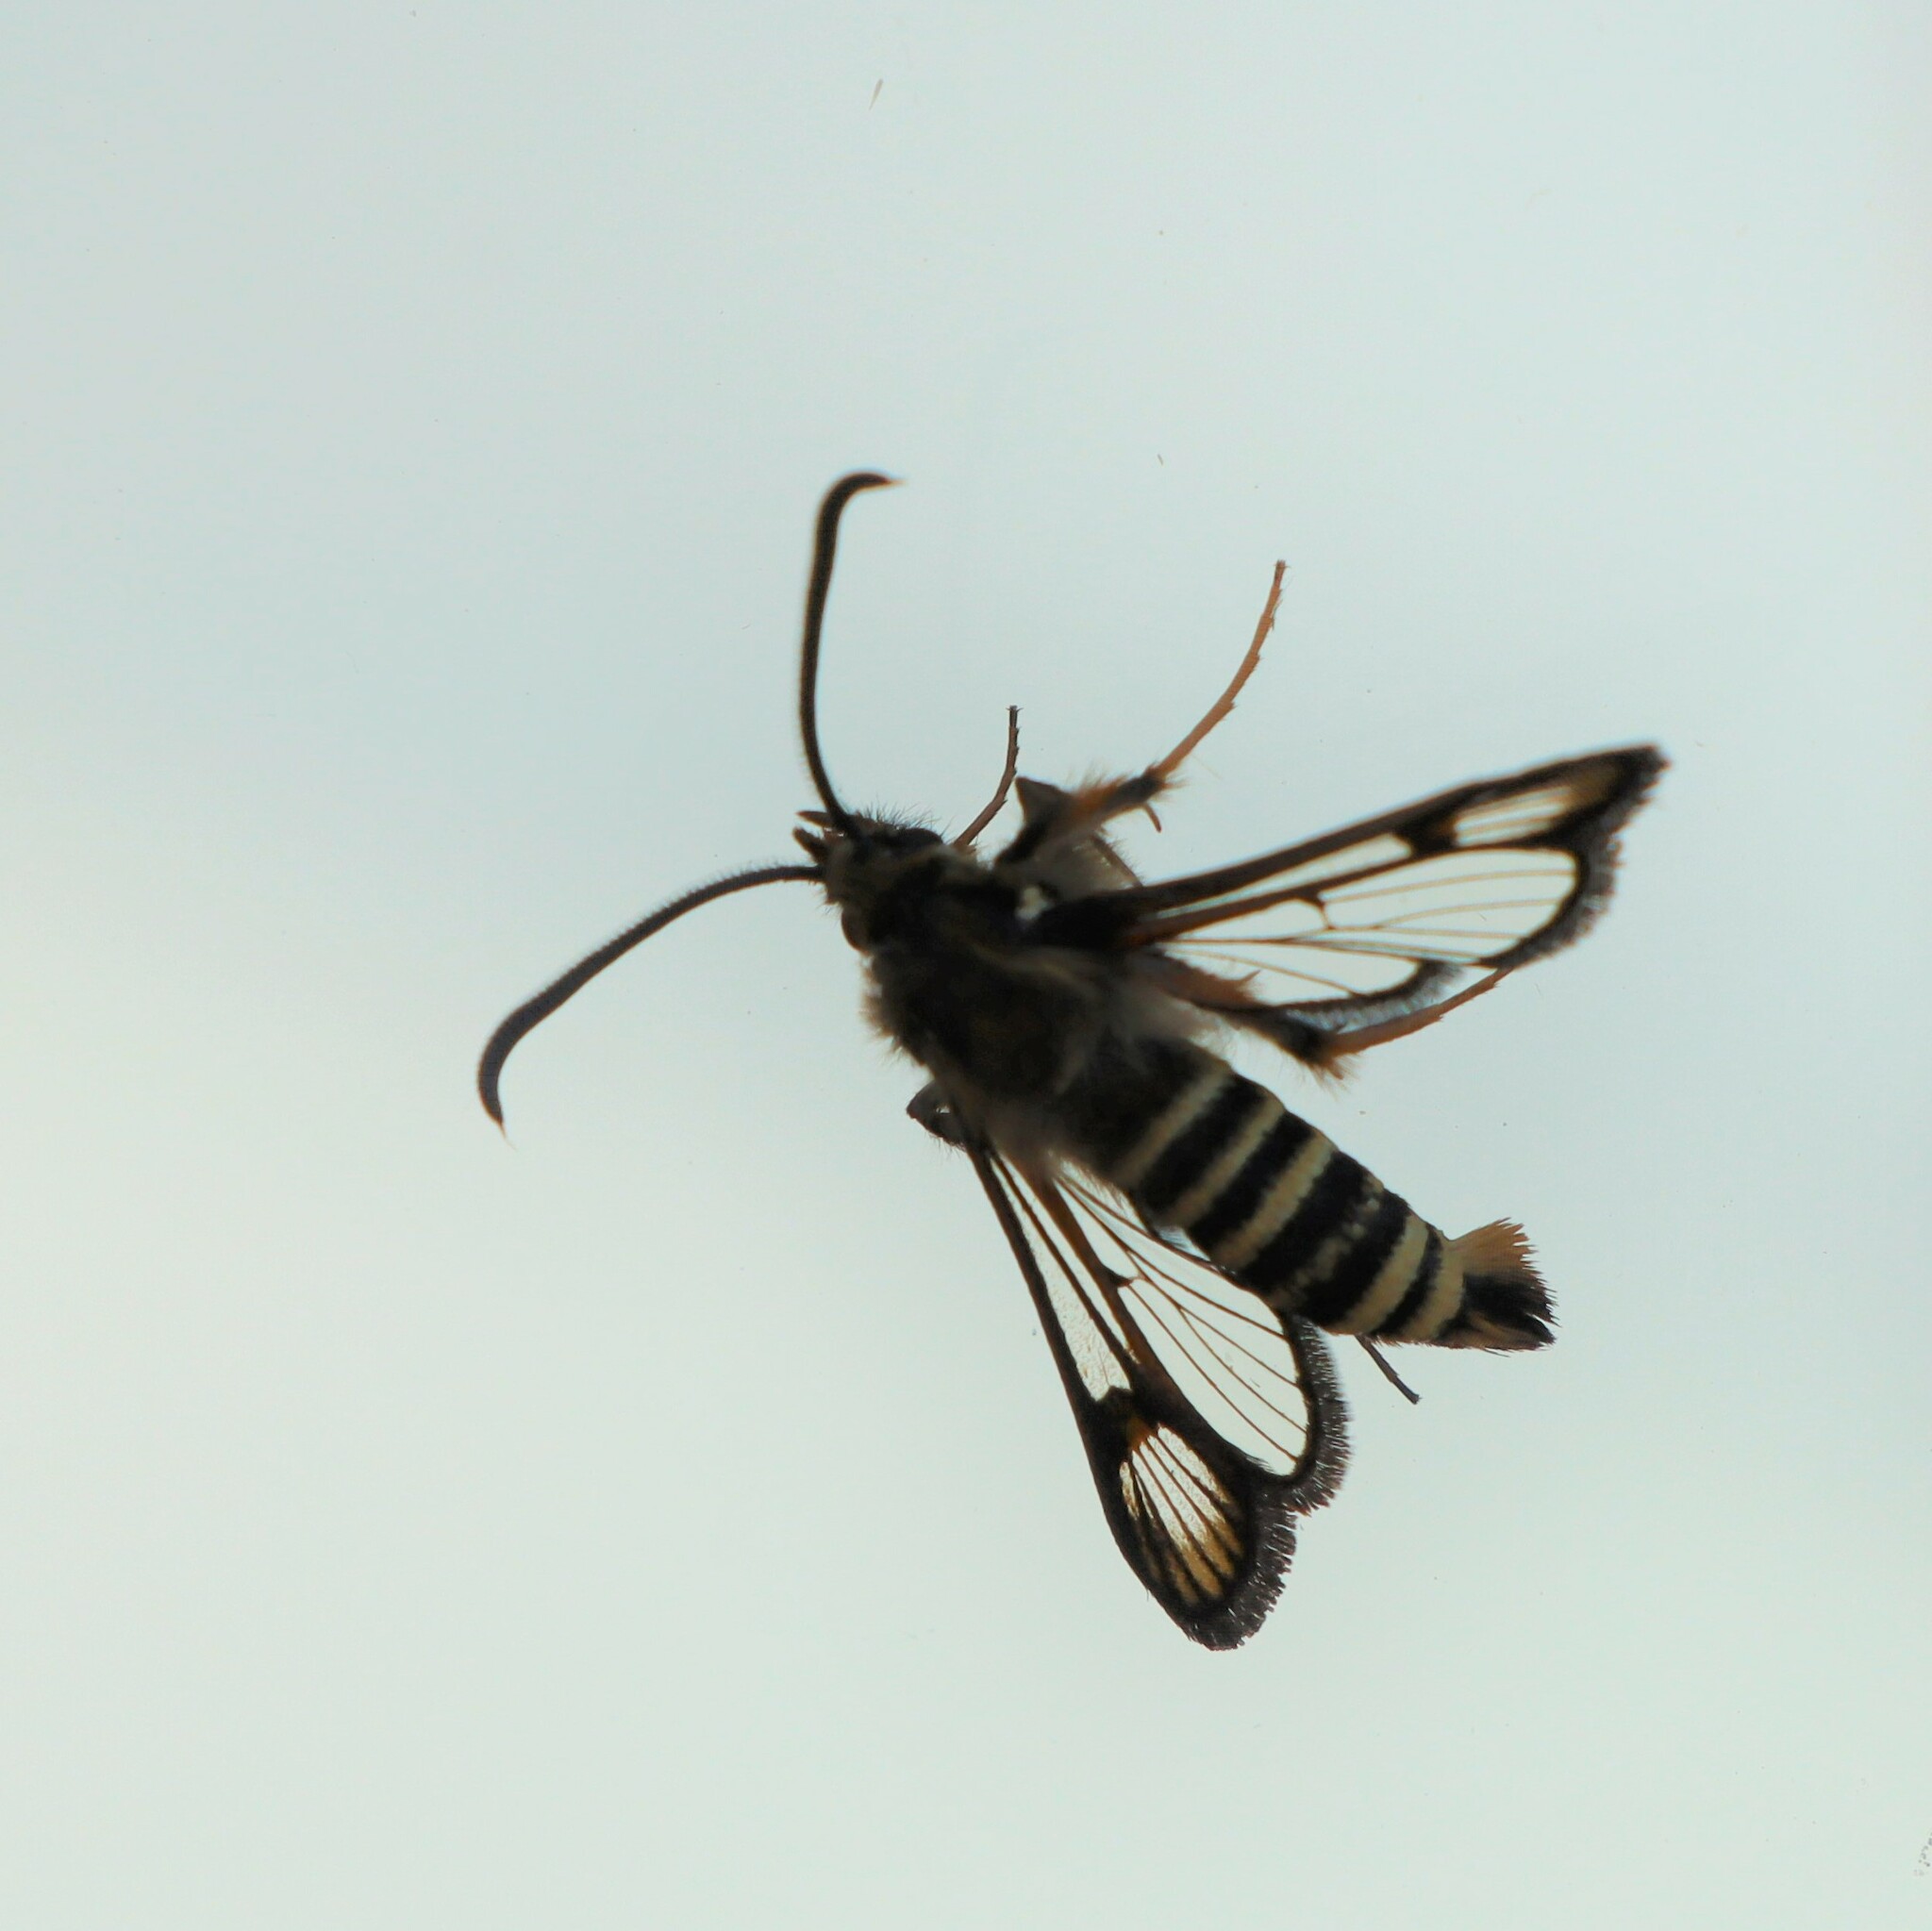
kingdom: Animalia
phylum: Arthropoda
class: Insecta
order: Lepidoptera
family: Sesiidae
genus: Bembecia
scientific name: Bembecia ichneumoniformis
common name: Six-belted clearwing
